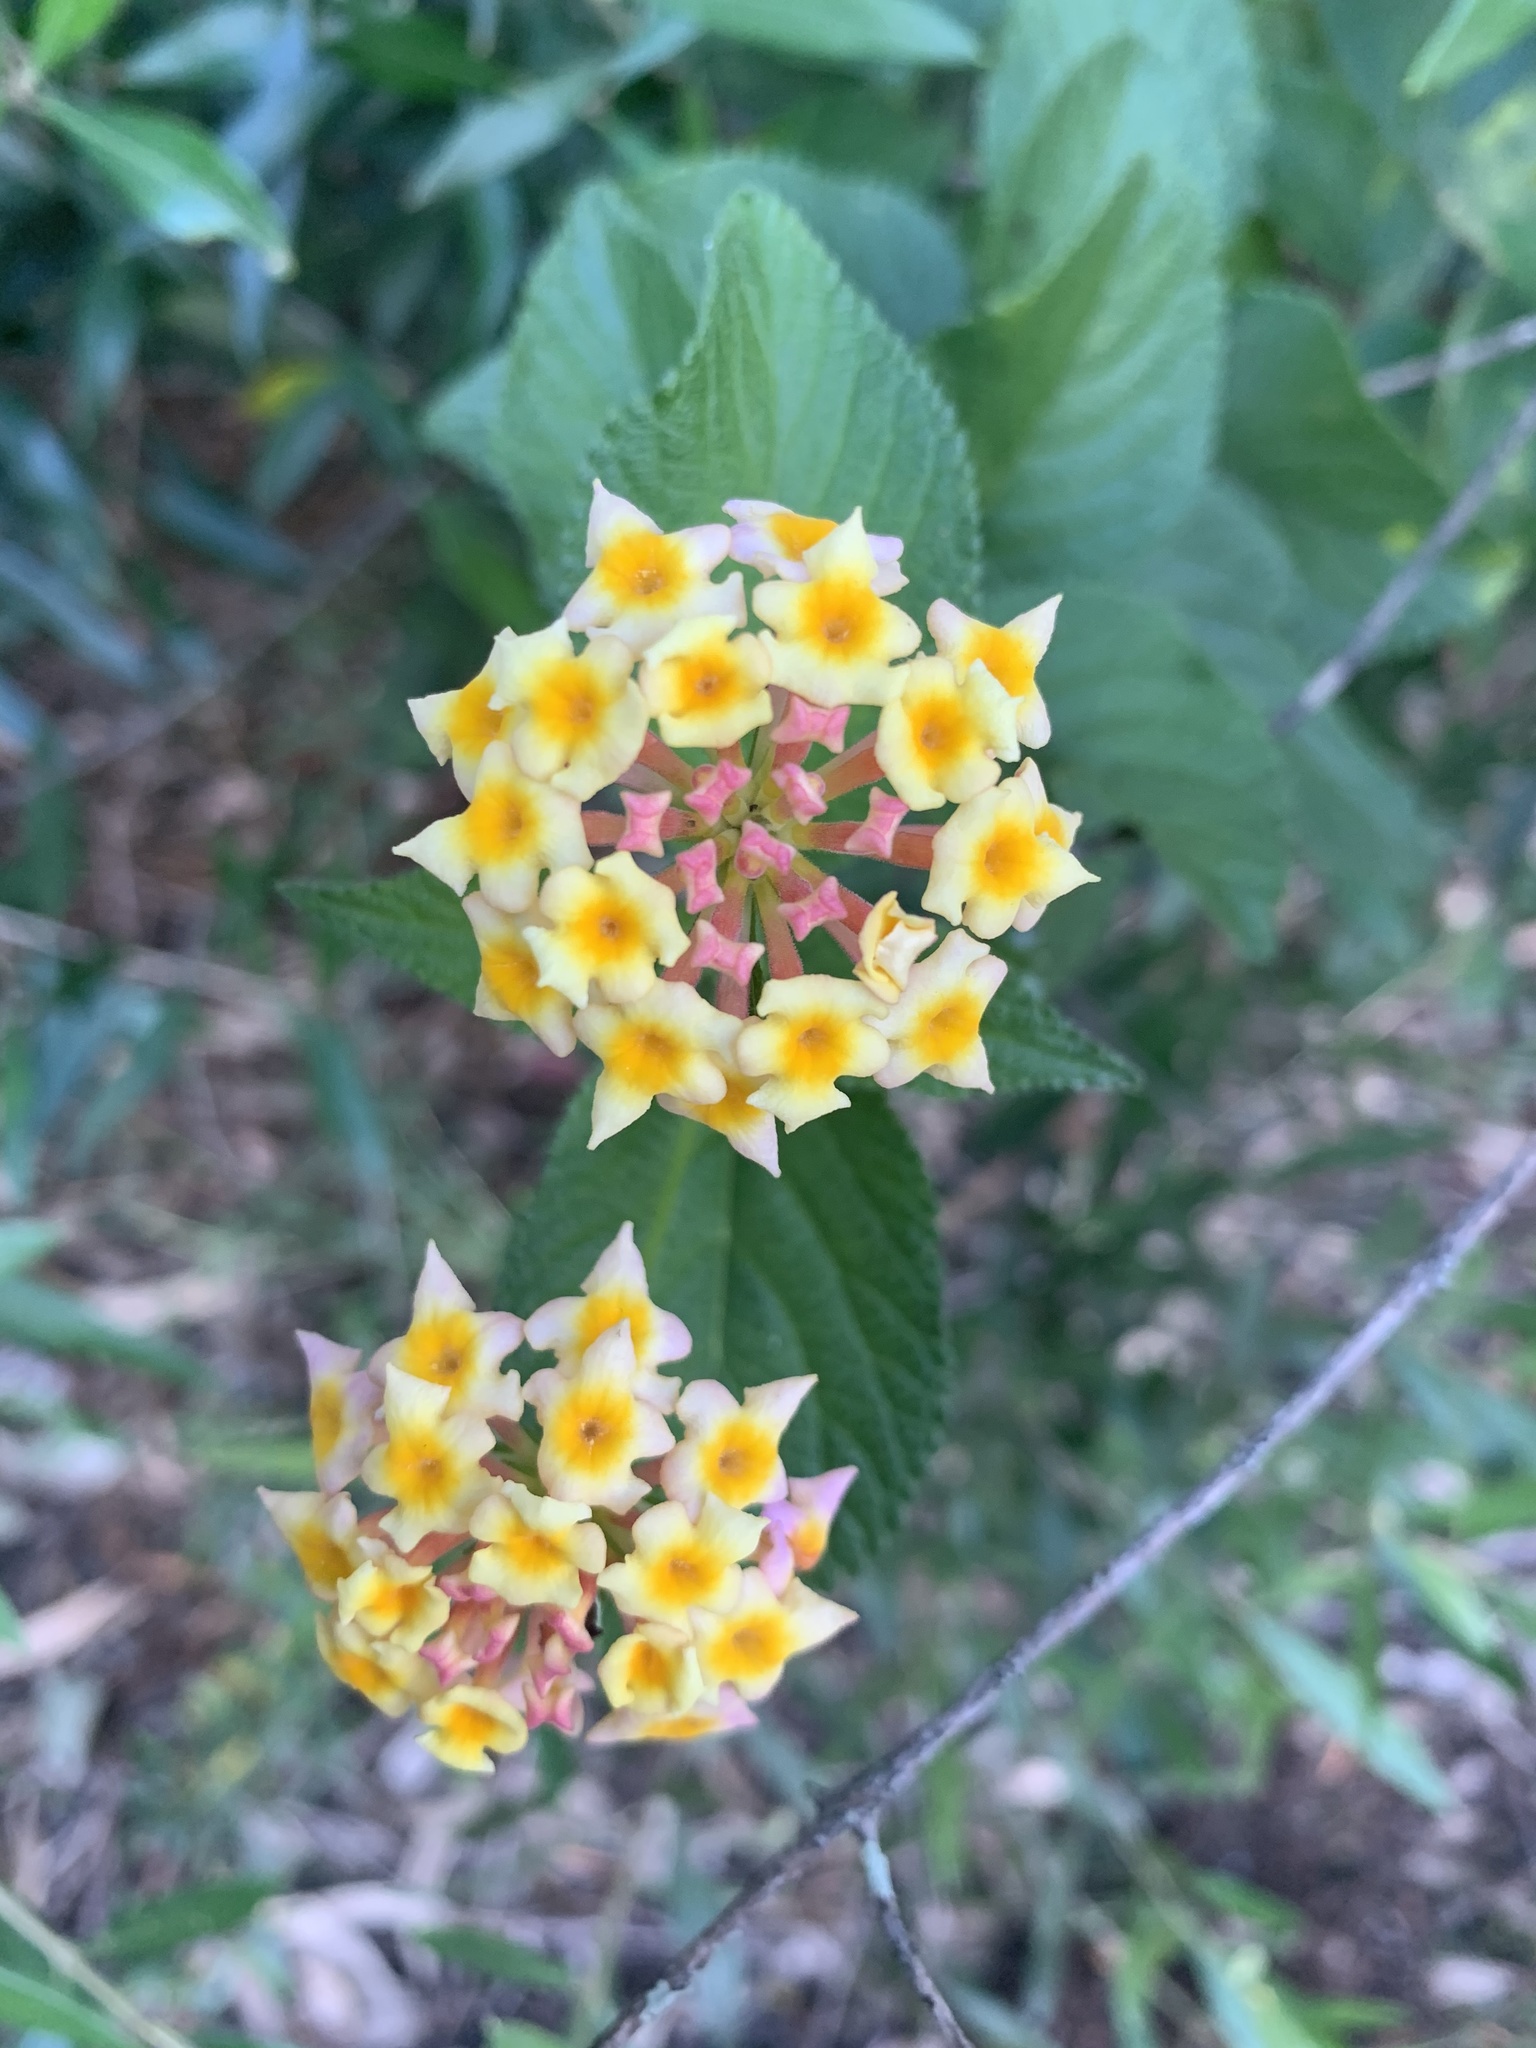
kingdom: Plantae
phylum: Tracheophyta
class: Magnoliopsida
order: Lamiales
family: Verbenaceae
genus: Lantana
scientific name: Lantana camara
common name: Lantana
